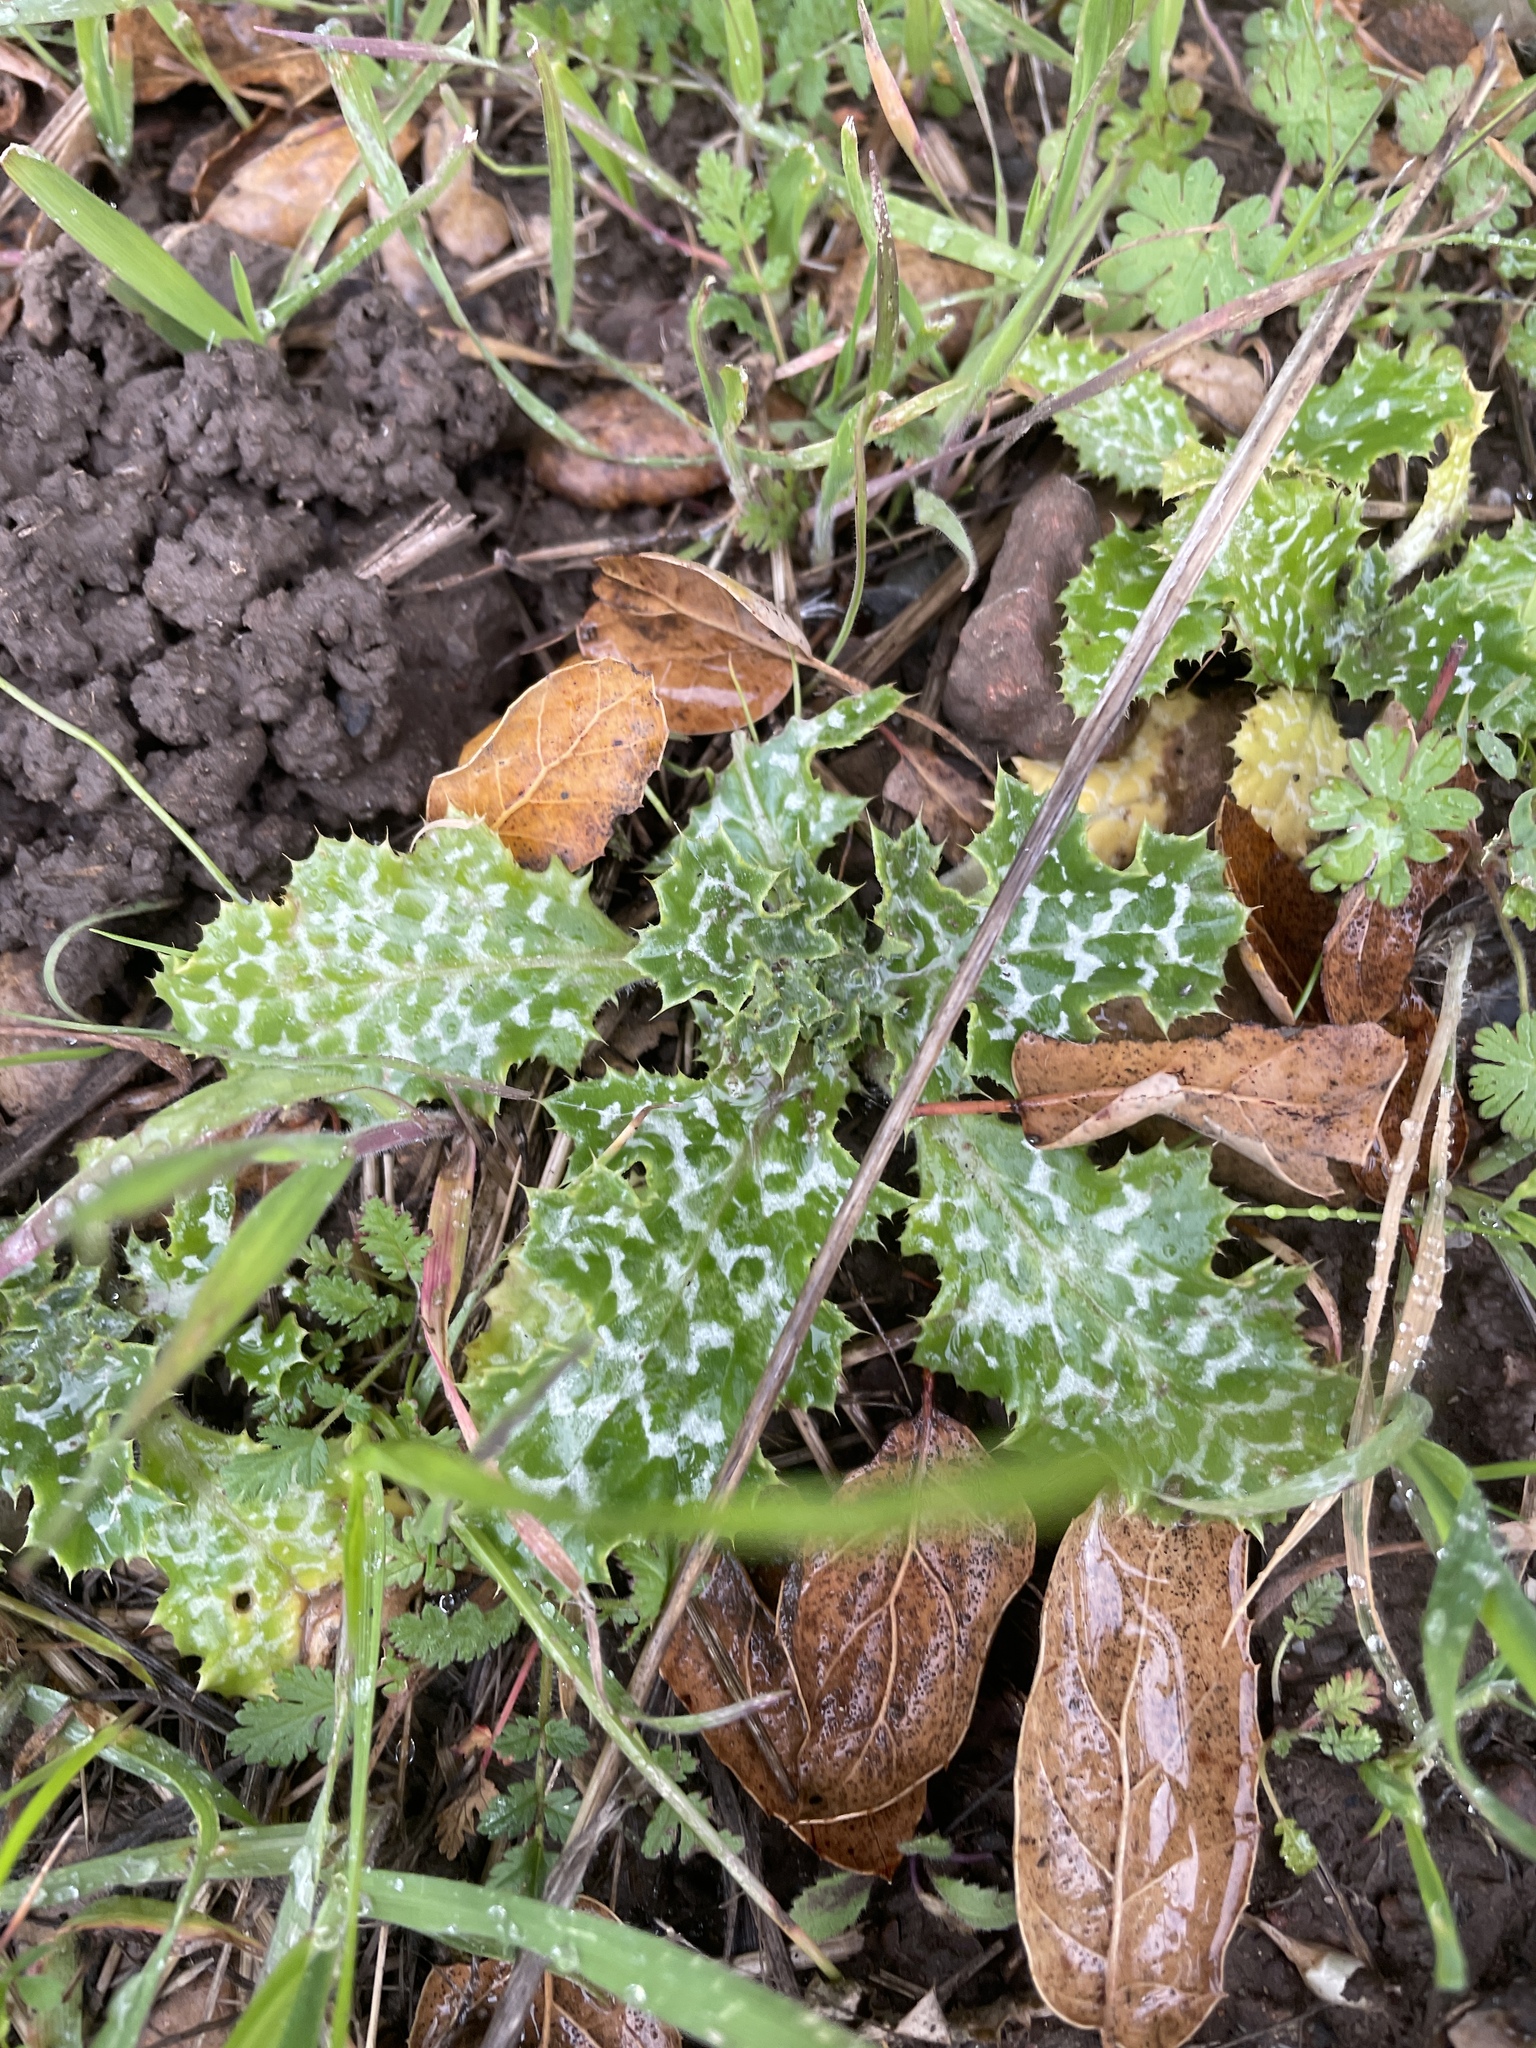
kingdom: Plantae
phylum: Tracheophyta
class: Magnoliopsida
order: Asterales
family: Asteraceae
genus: Silybum
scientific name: Silybum marianum
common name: Milk thistle
